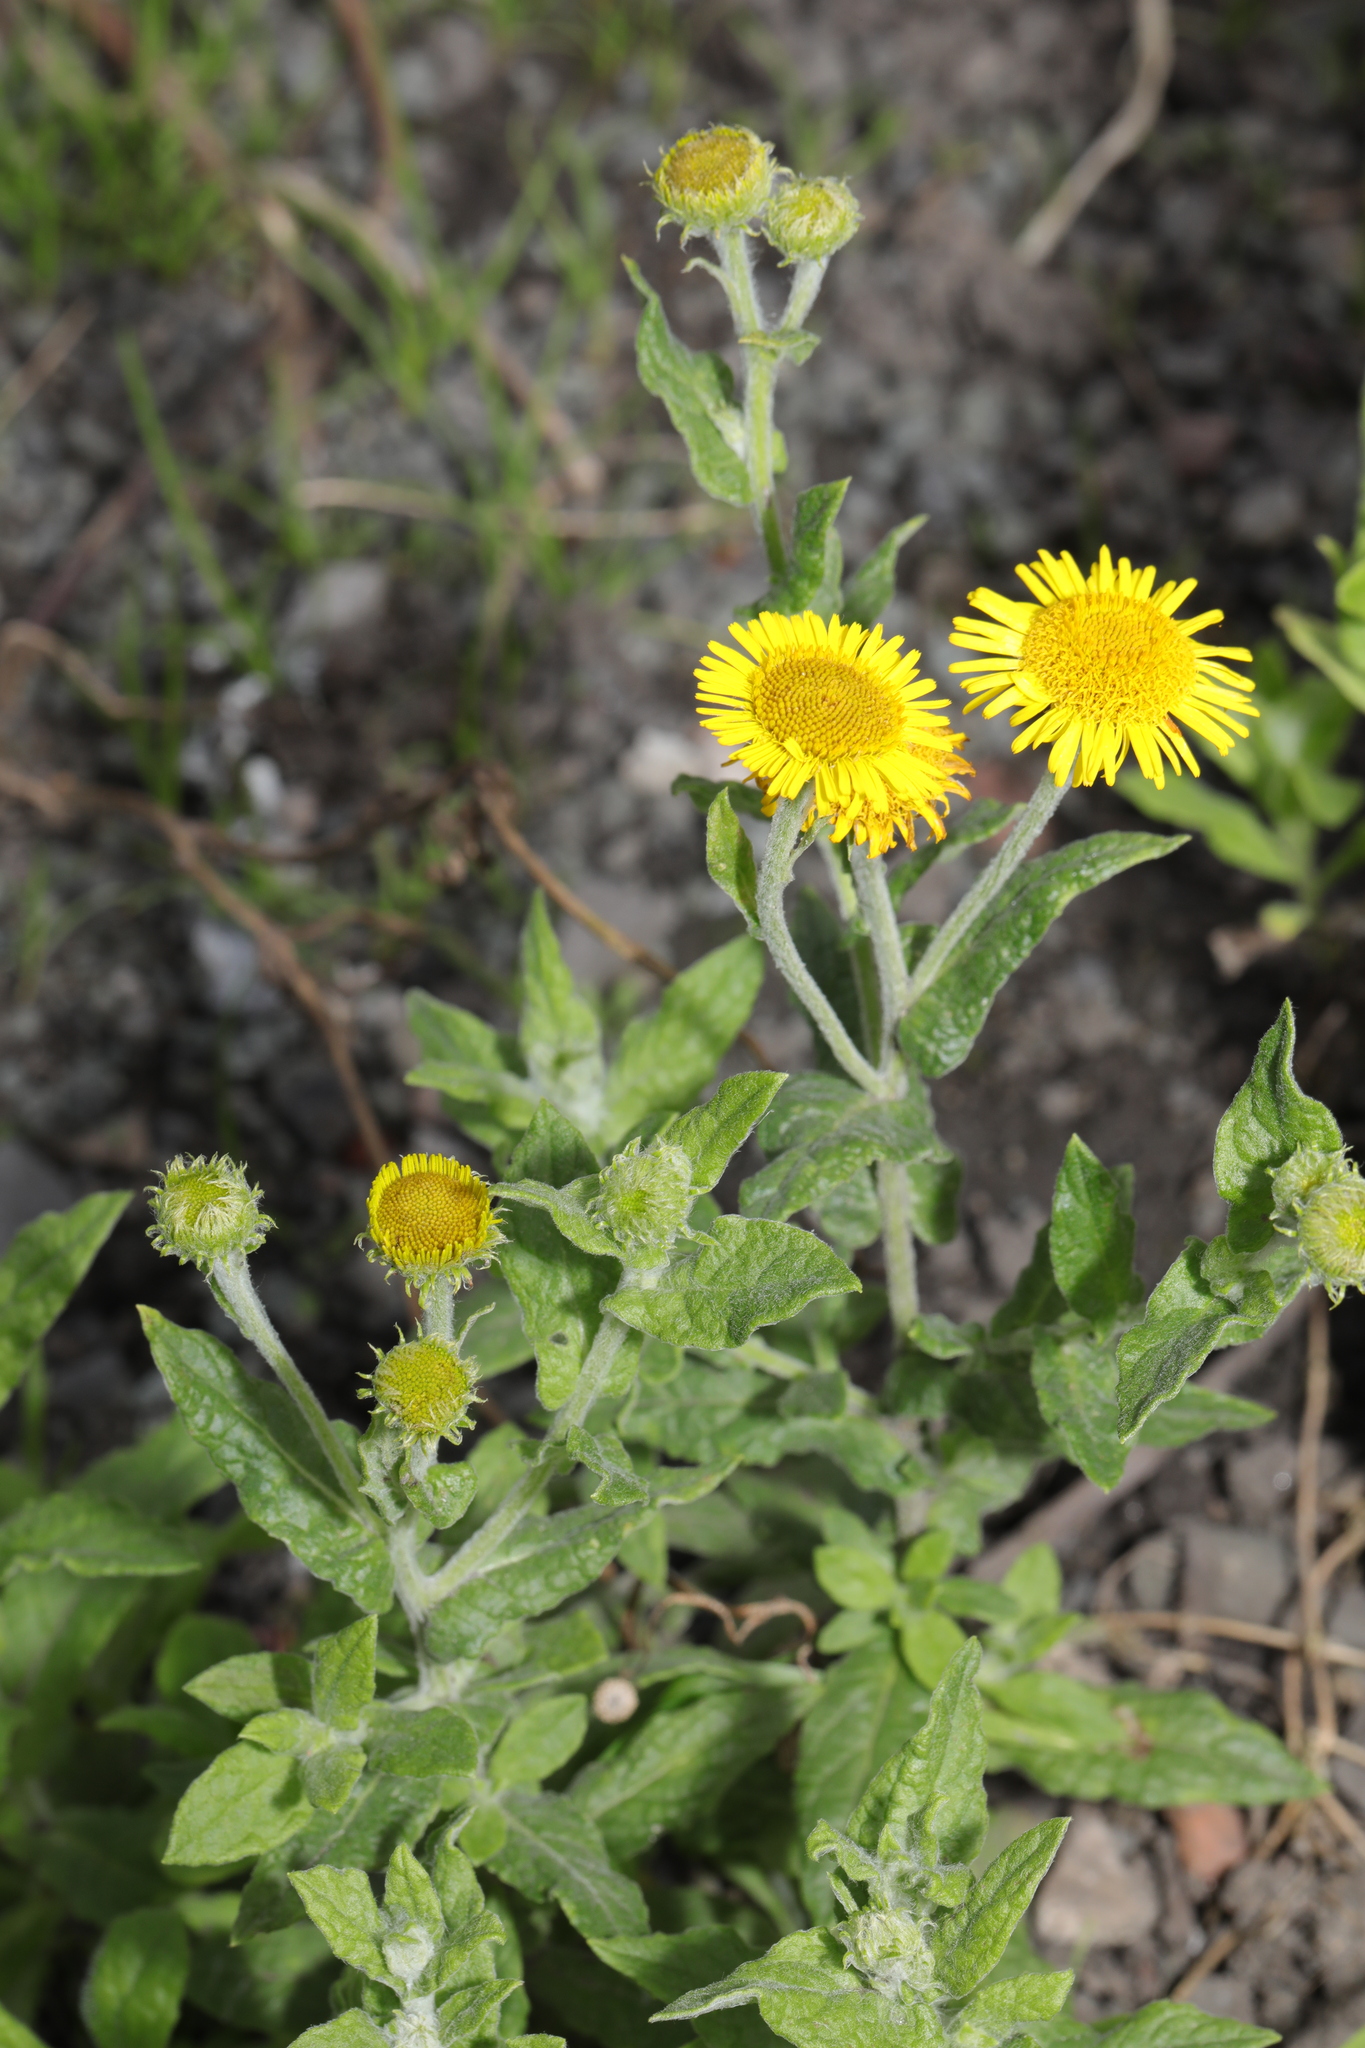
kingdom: Plantae
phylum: Tracheophyta
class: Magnoliopsida
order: Asterales
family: Asteraceae
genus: Pulicaria
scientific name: Pulicaria dysenterica
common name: Common fleabane
